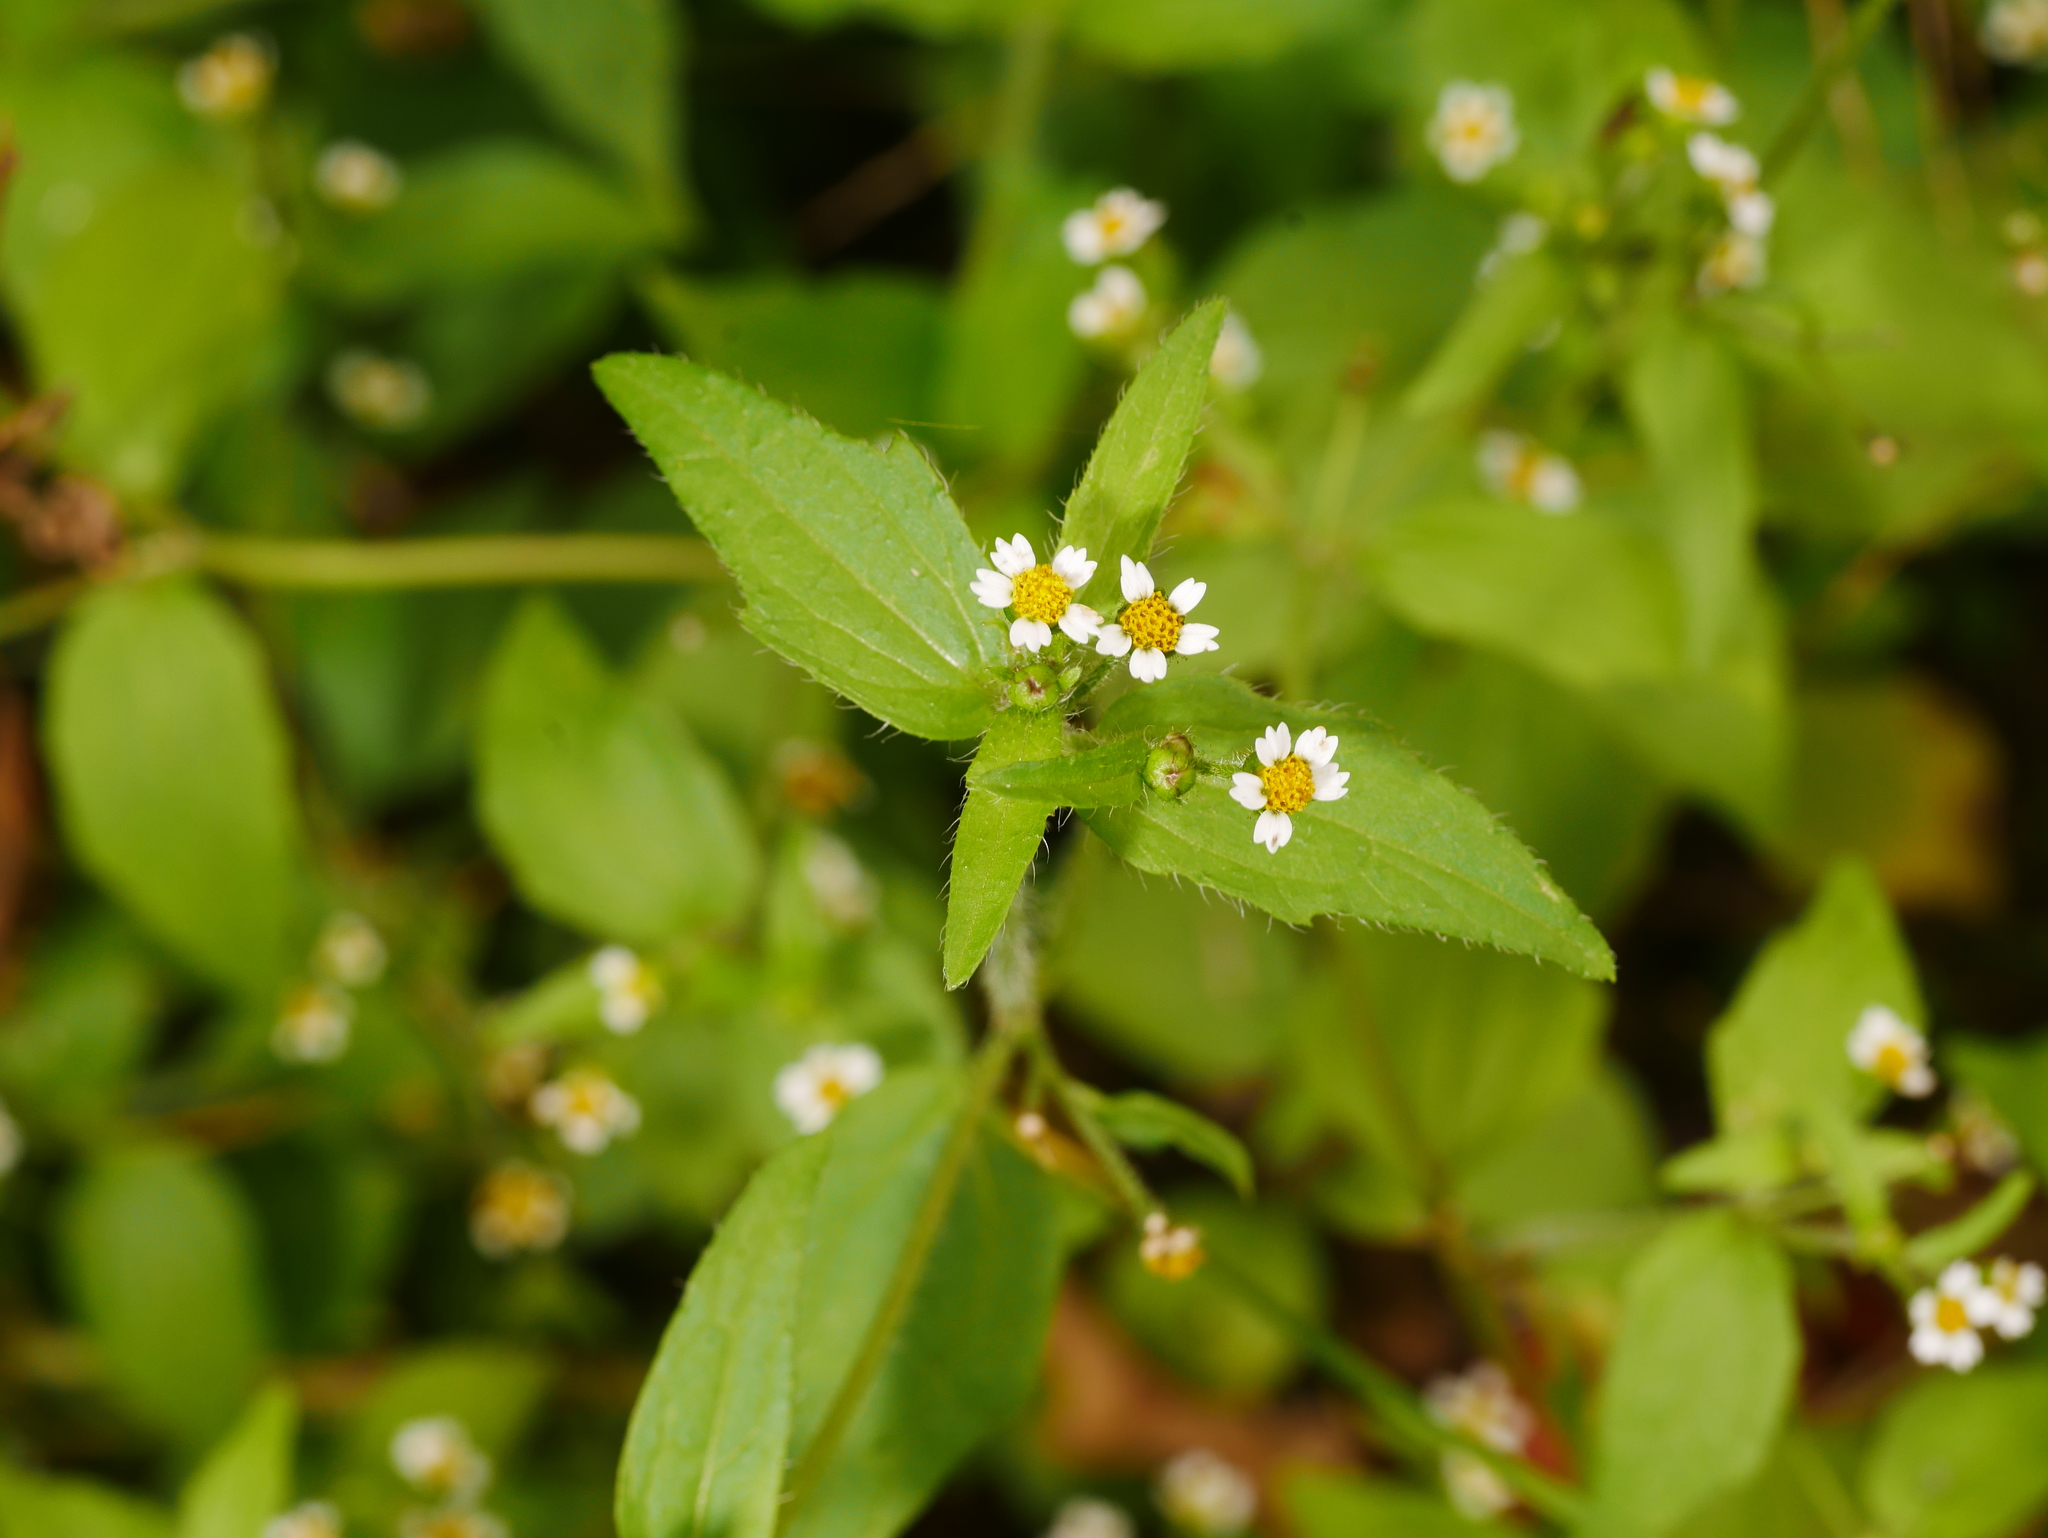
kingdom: Plantae
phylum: Tracheophyta
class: Magnoliopsida
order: Asterales
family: Asteraceae
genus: Galinsoga
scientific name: Galinsoga quadriradiata
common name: Shaggy soldier
